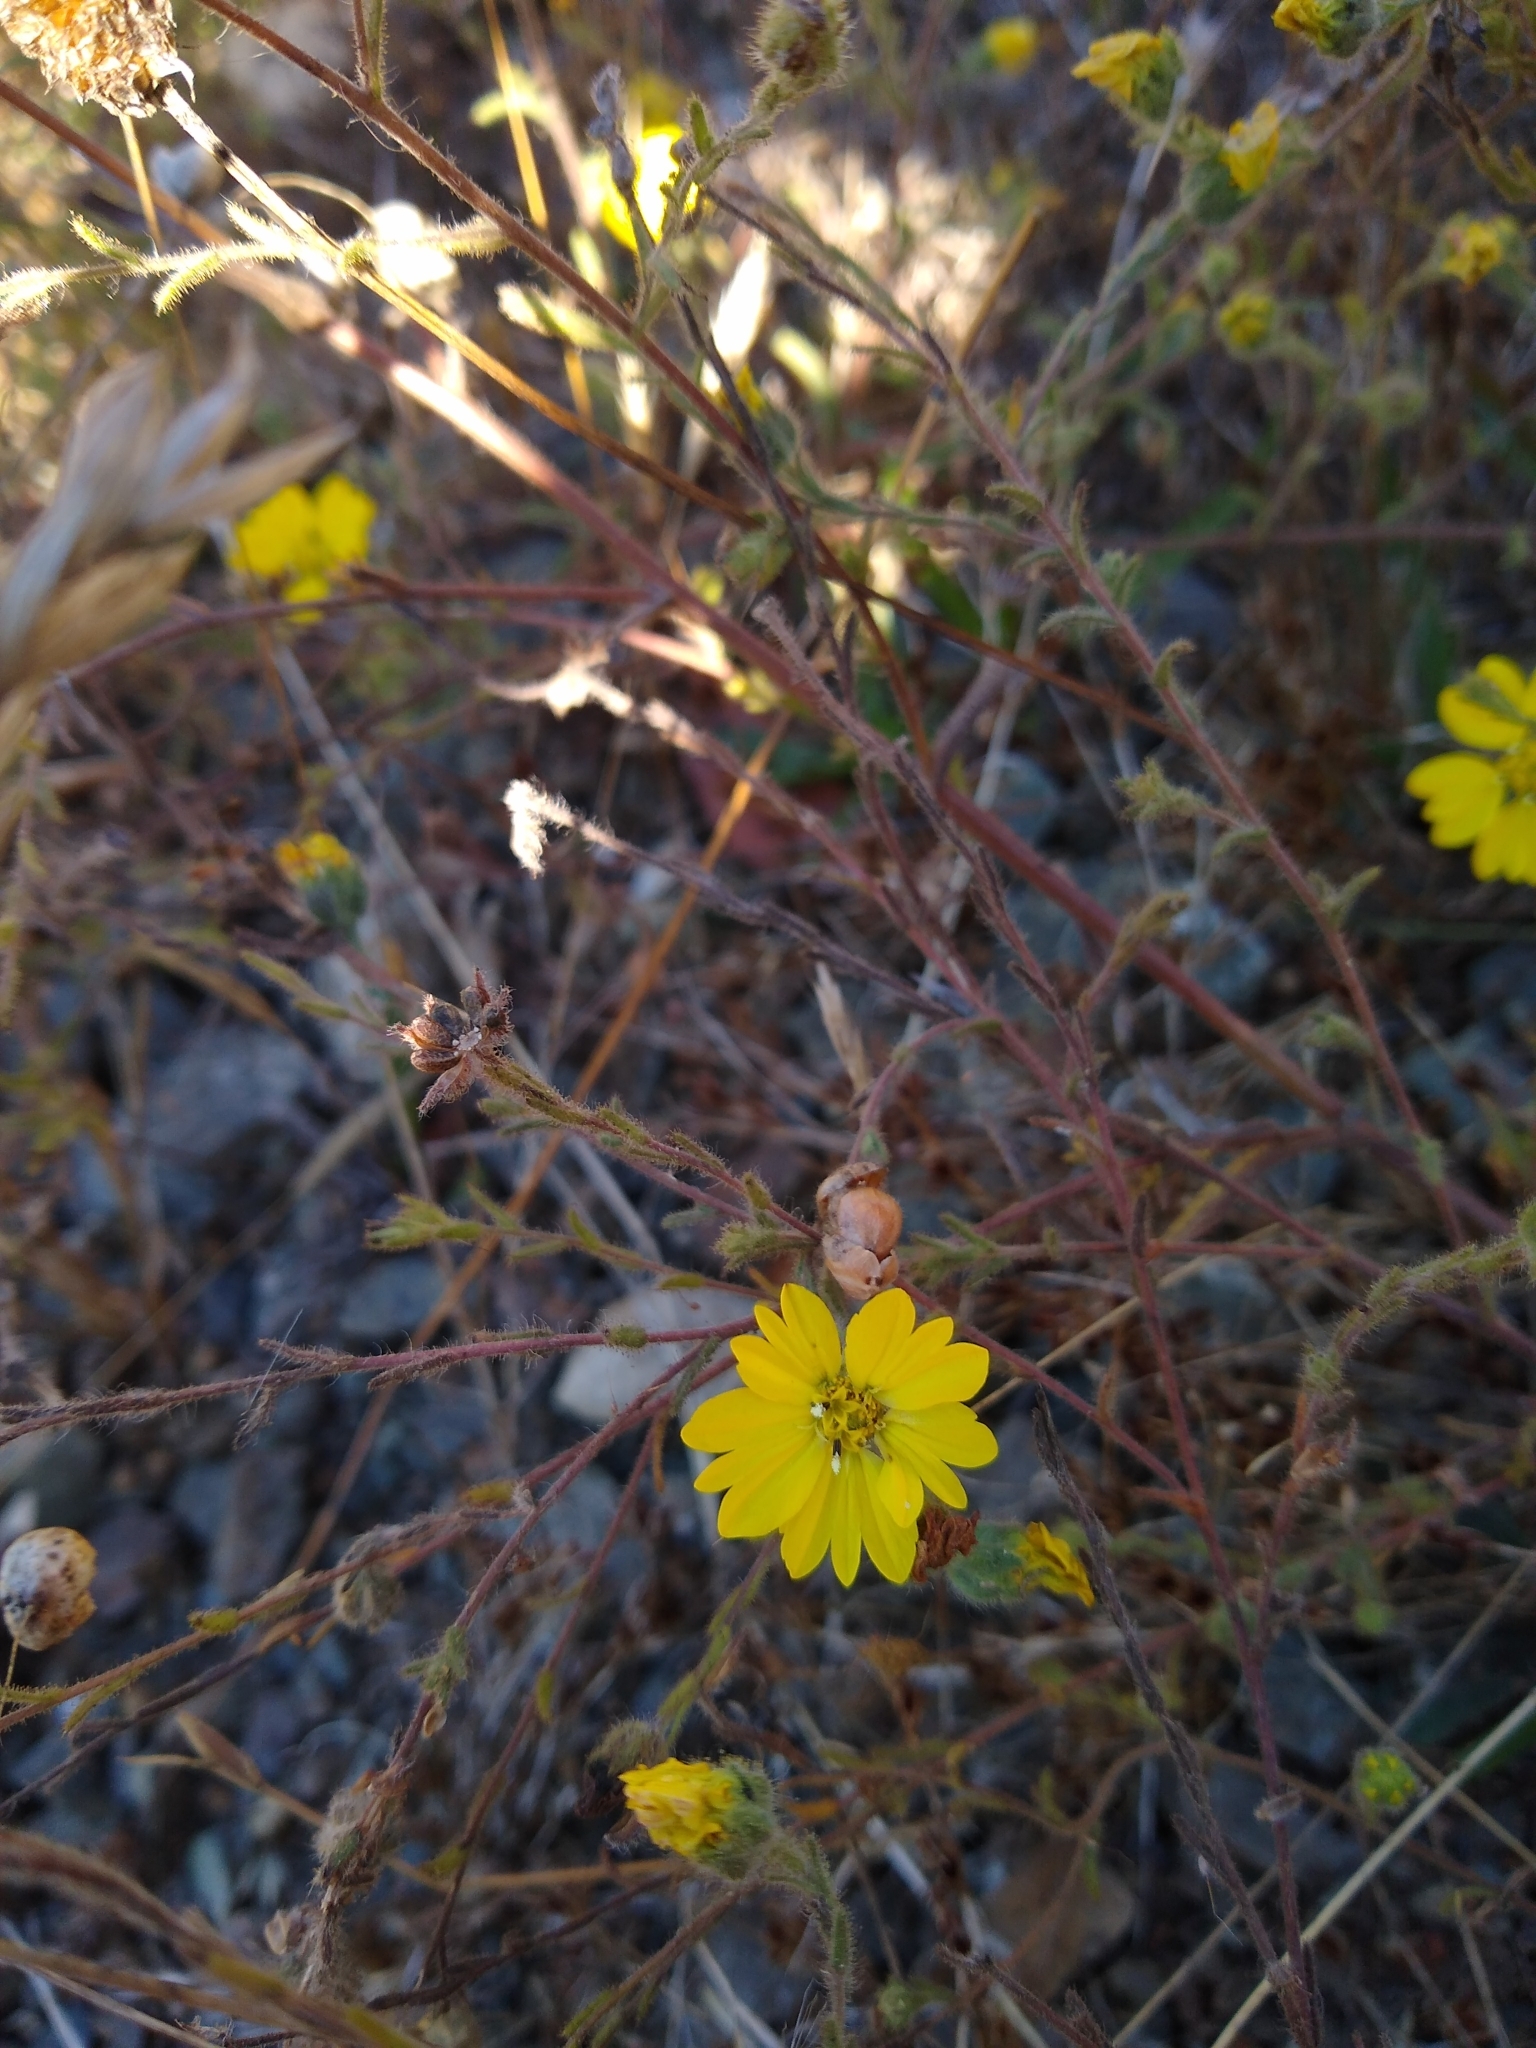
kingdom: Plantae
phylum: Tracheophyta
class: Magnoliopsida
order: Asterales
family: Asteraceae
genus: Hemizonia
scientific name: Hemizonia congesta
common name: Hayfield tarweed
